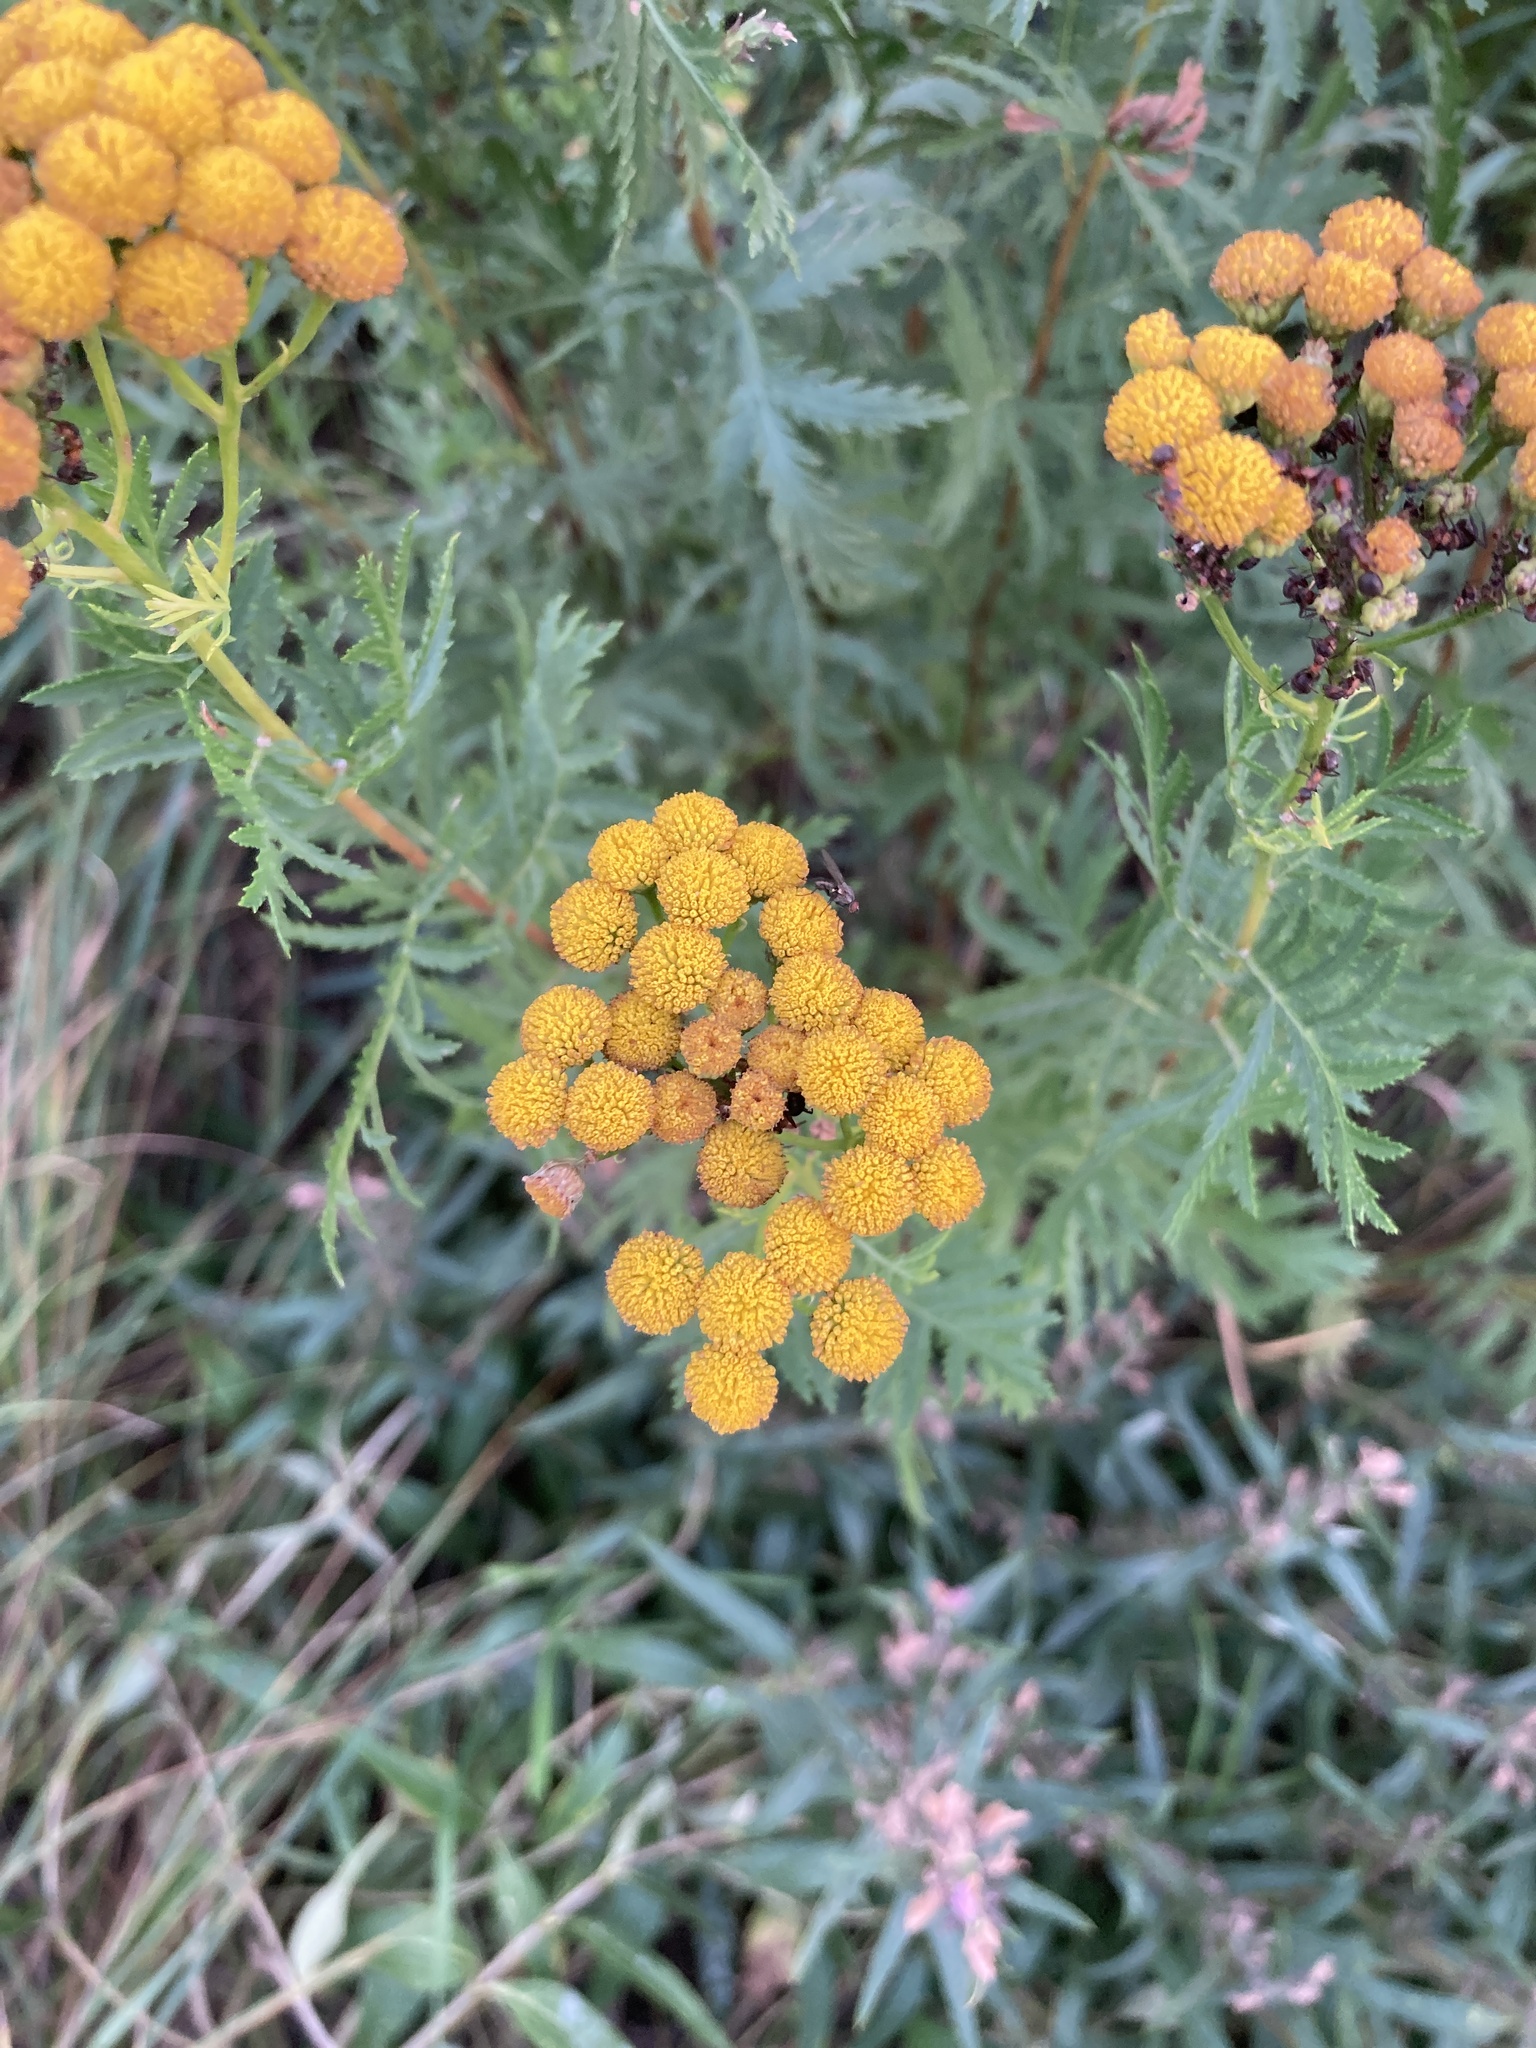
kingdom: Plantae
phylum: Tracheophyta
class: Magnoliopsida
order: Asterales
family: Asteraceae
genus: Tanacetum
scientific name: Tanacetum vulgare
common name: Common tansy
